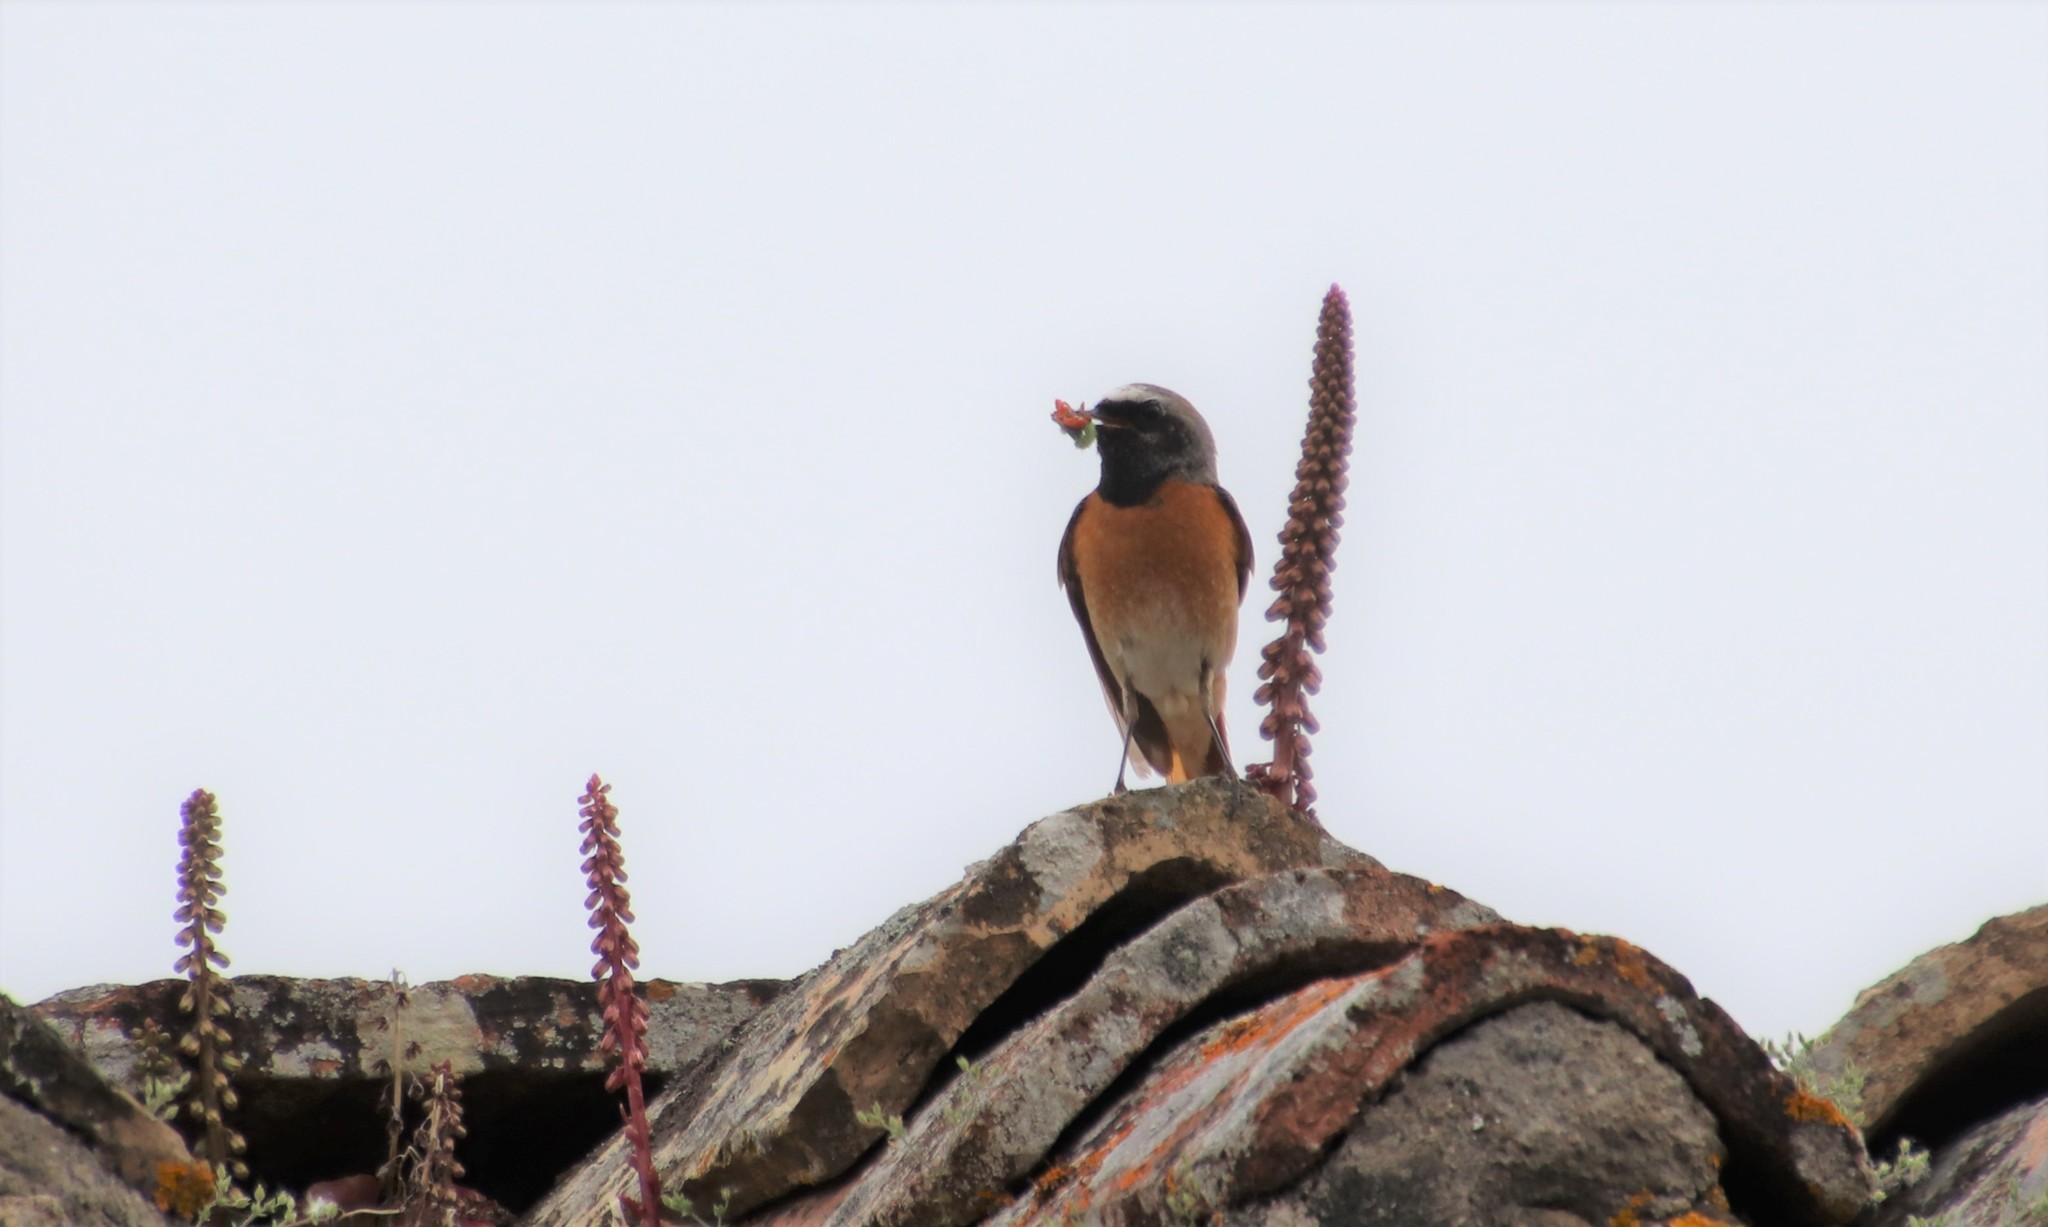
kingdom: Animalia
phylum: Chordata
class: Aves
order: Passeriformes
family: Muscicapidae
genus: Phoenicurus
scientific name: Phoenicurus phoenicurus
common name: Common redstart
